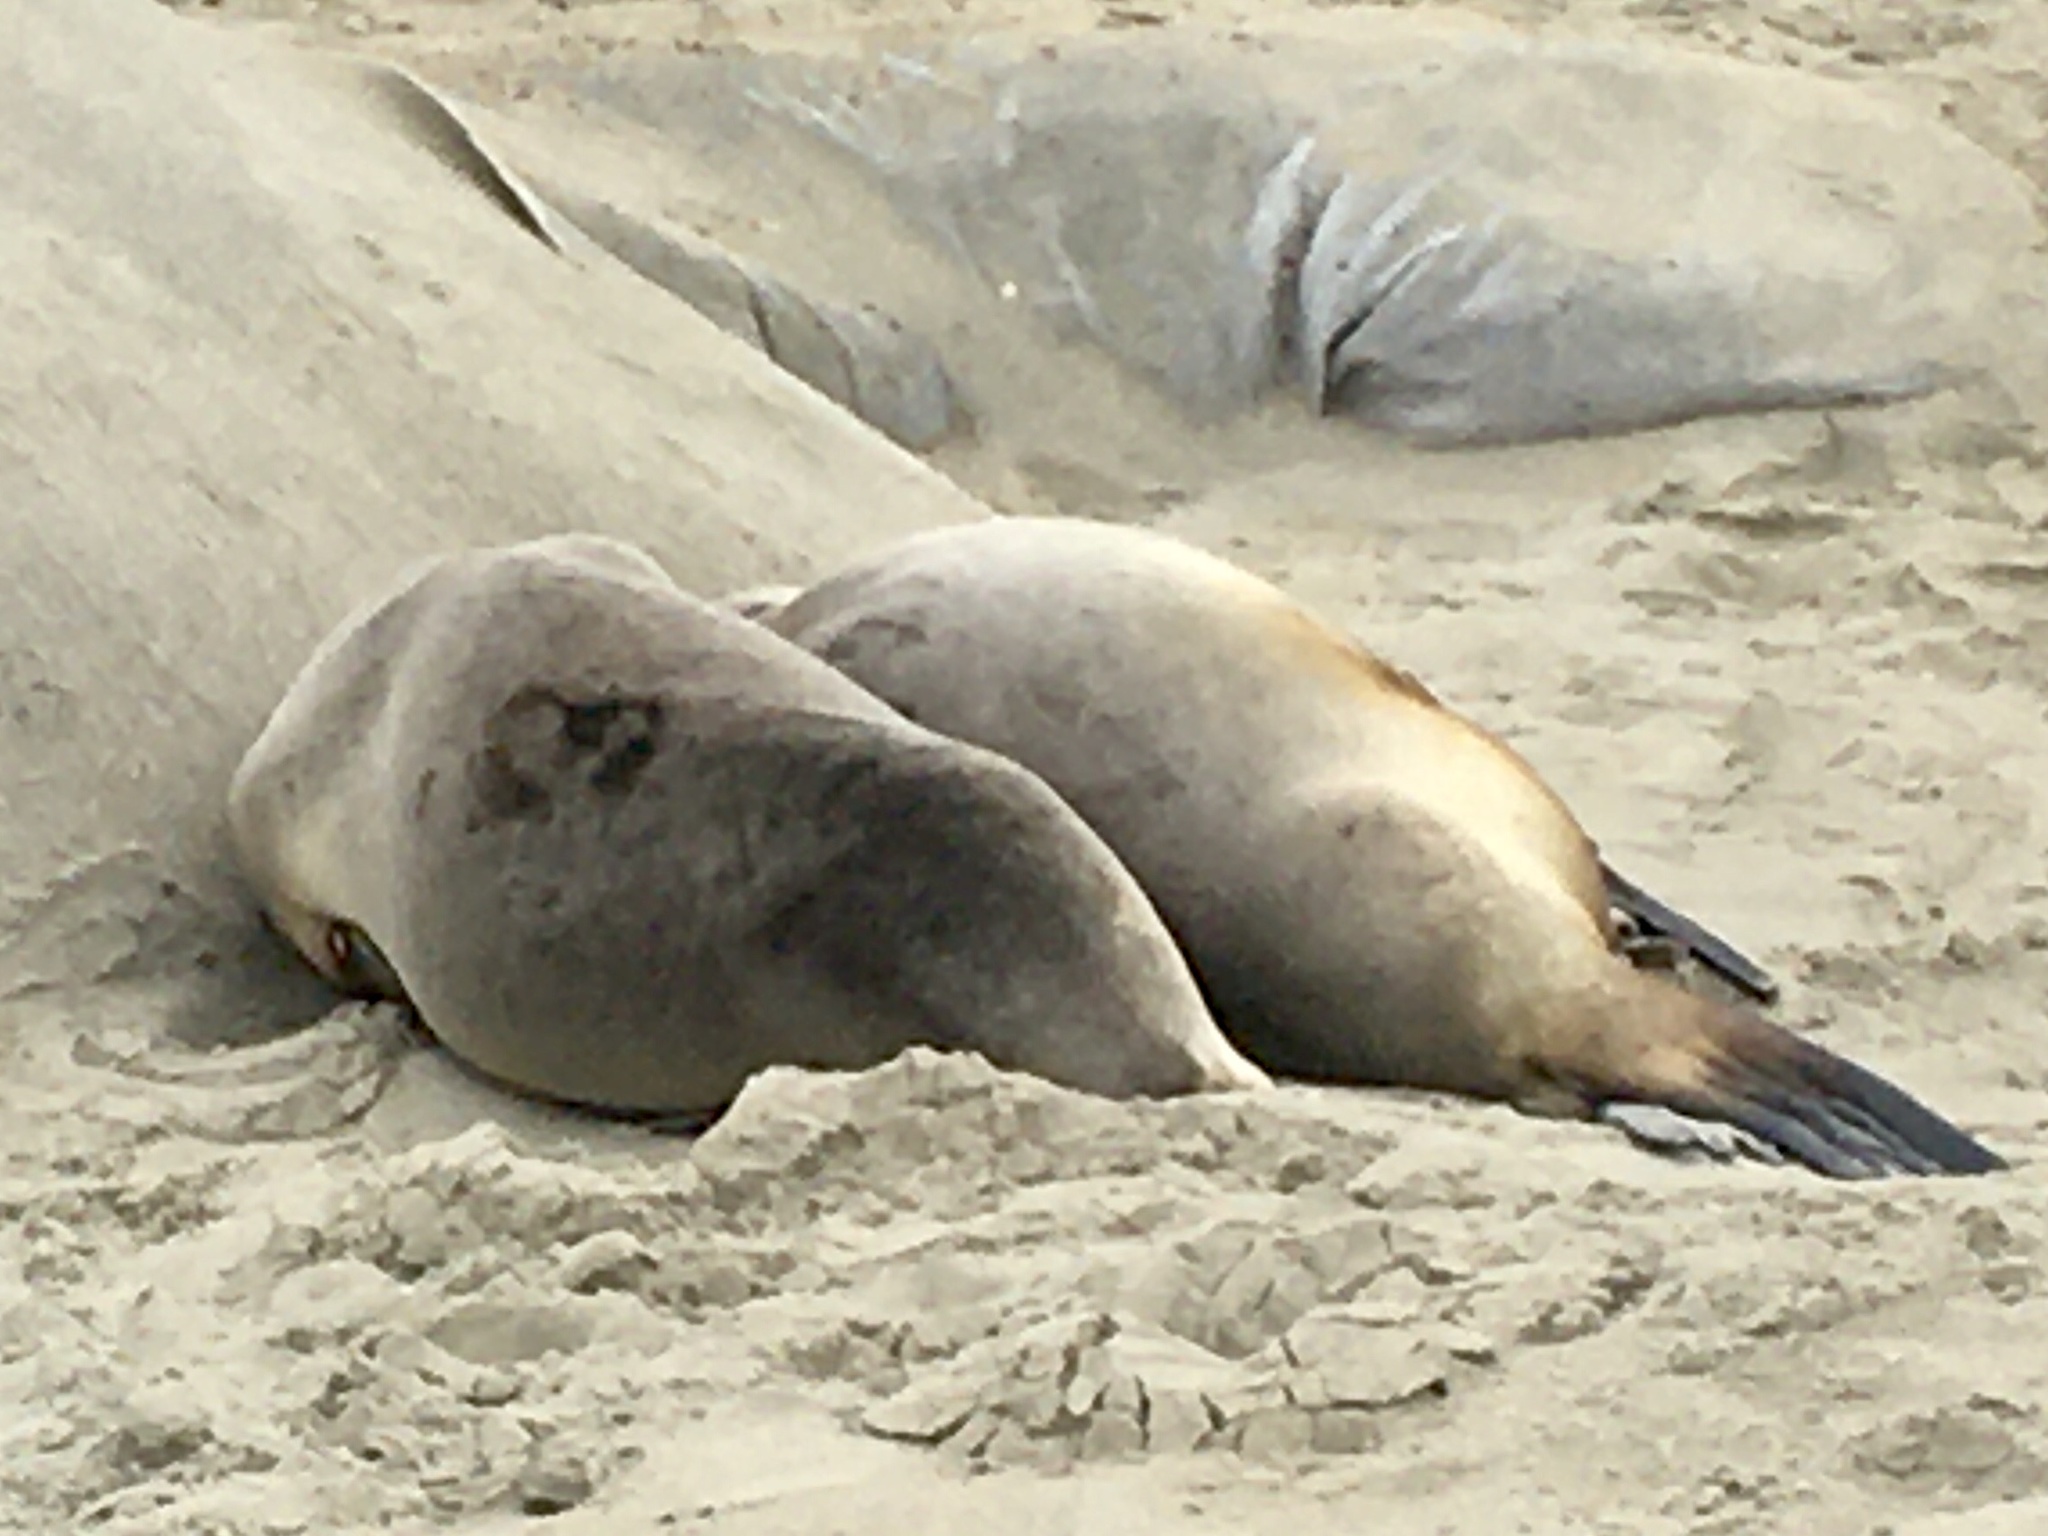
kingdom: Animalia
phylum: Chordata
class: Mammalia
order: Carnivora
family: Otariidae
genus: Phocarctos
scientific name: Phocarctos hookeri
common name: New zealand sea lion
